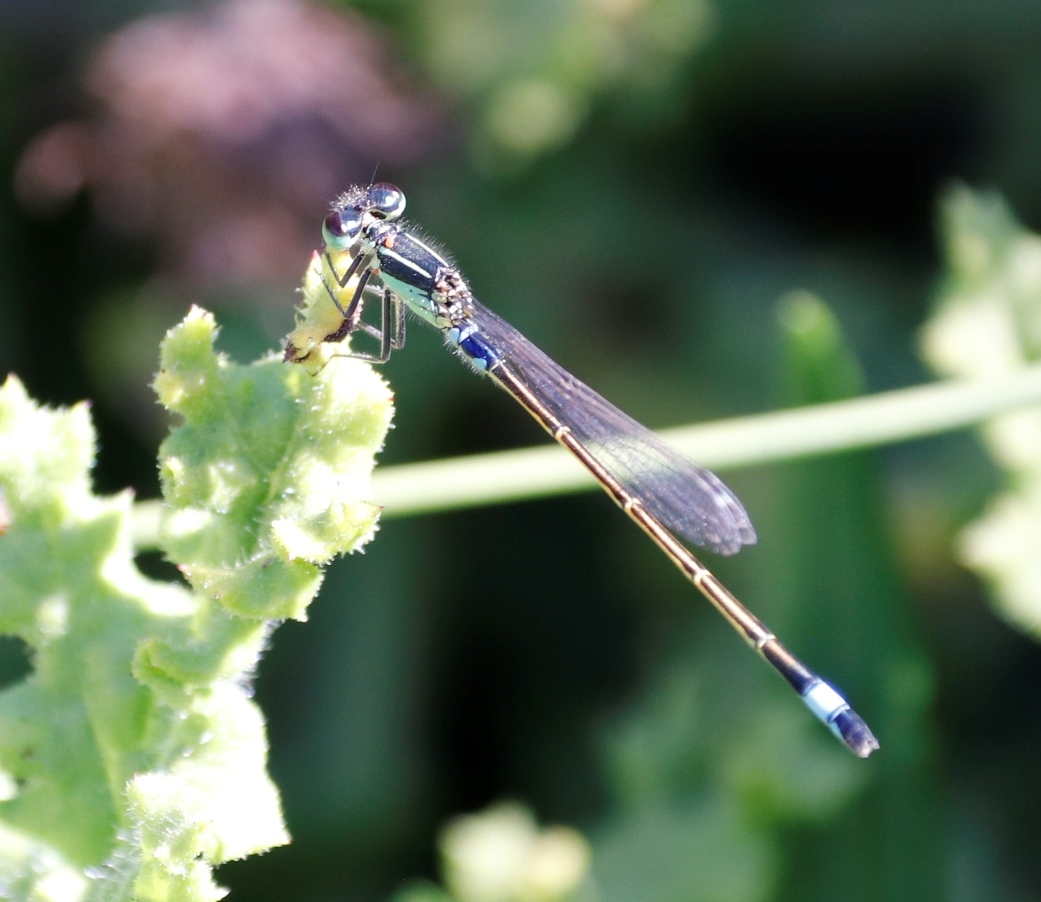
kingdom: Animalia
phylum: Arthropoda
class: Insecta
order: Odonata
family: Coenagrionidae
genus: Ischnura
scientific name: Ischnura senegalensis
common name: Tropical bluetail
